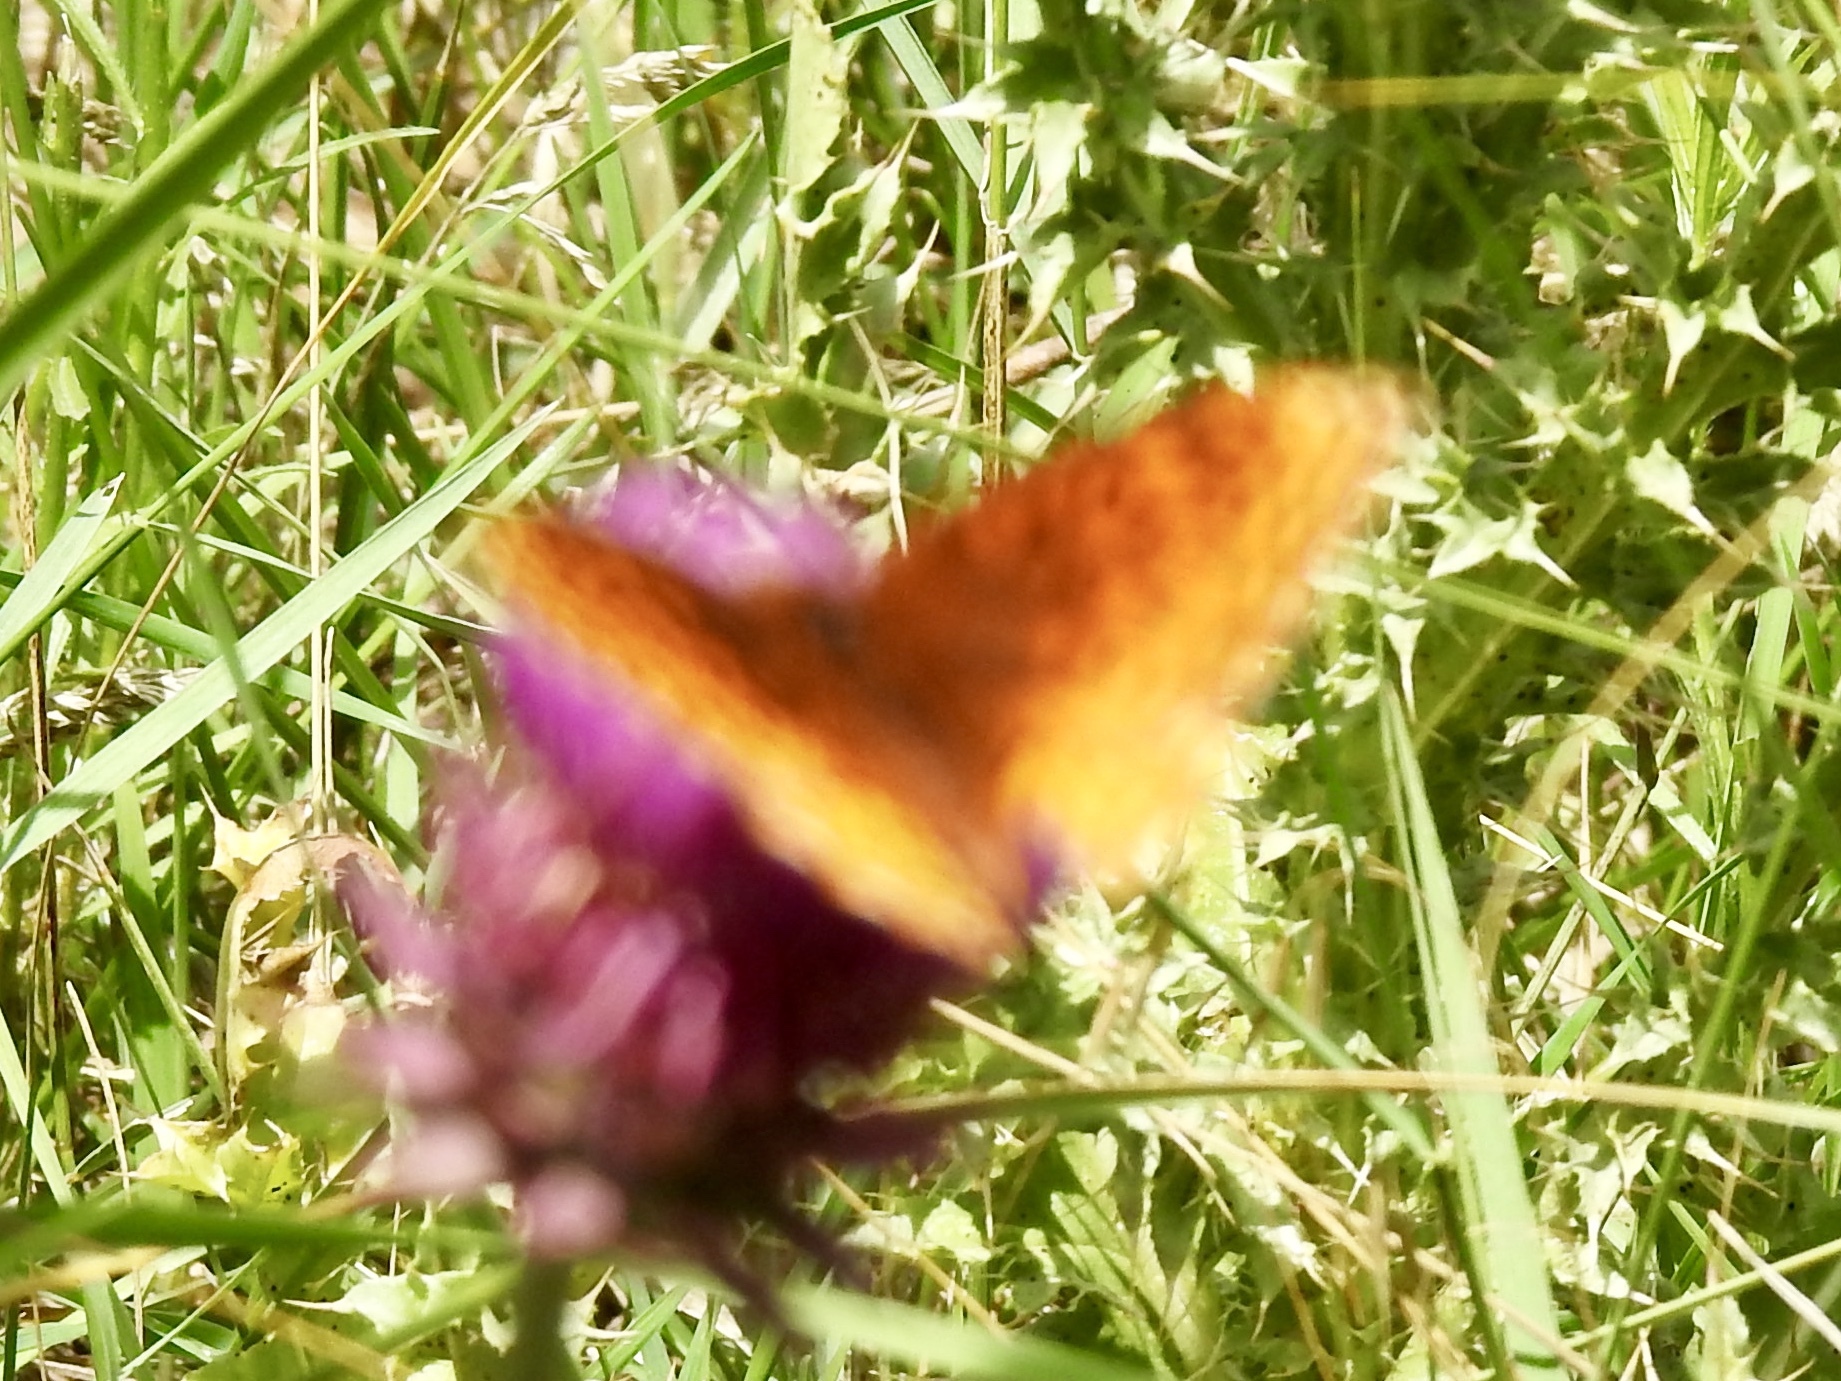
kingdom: Animalia
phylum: Arthropoda
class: Insecta
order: Lepidoptera
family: Nymphalidae
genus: Speyeria
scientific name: Speyeria atlantis
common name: Atlantis fritillary
